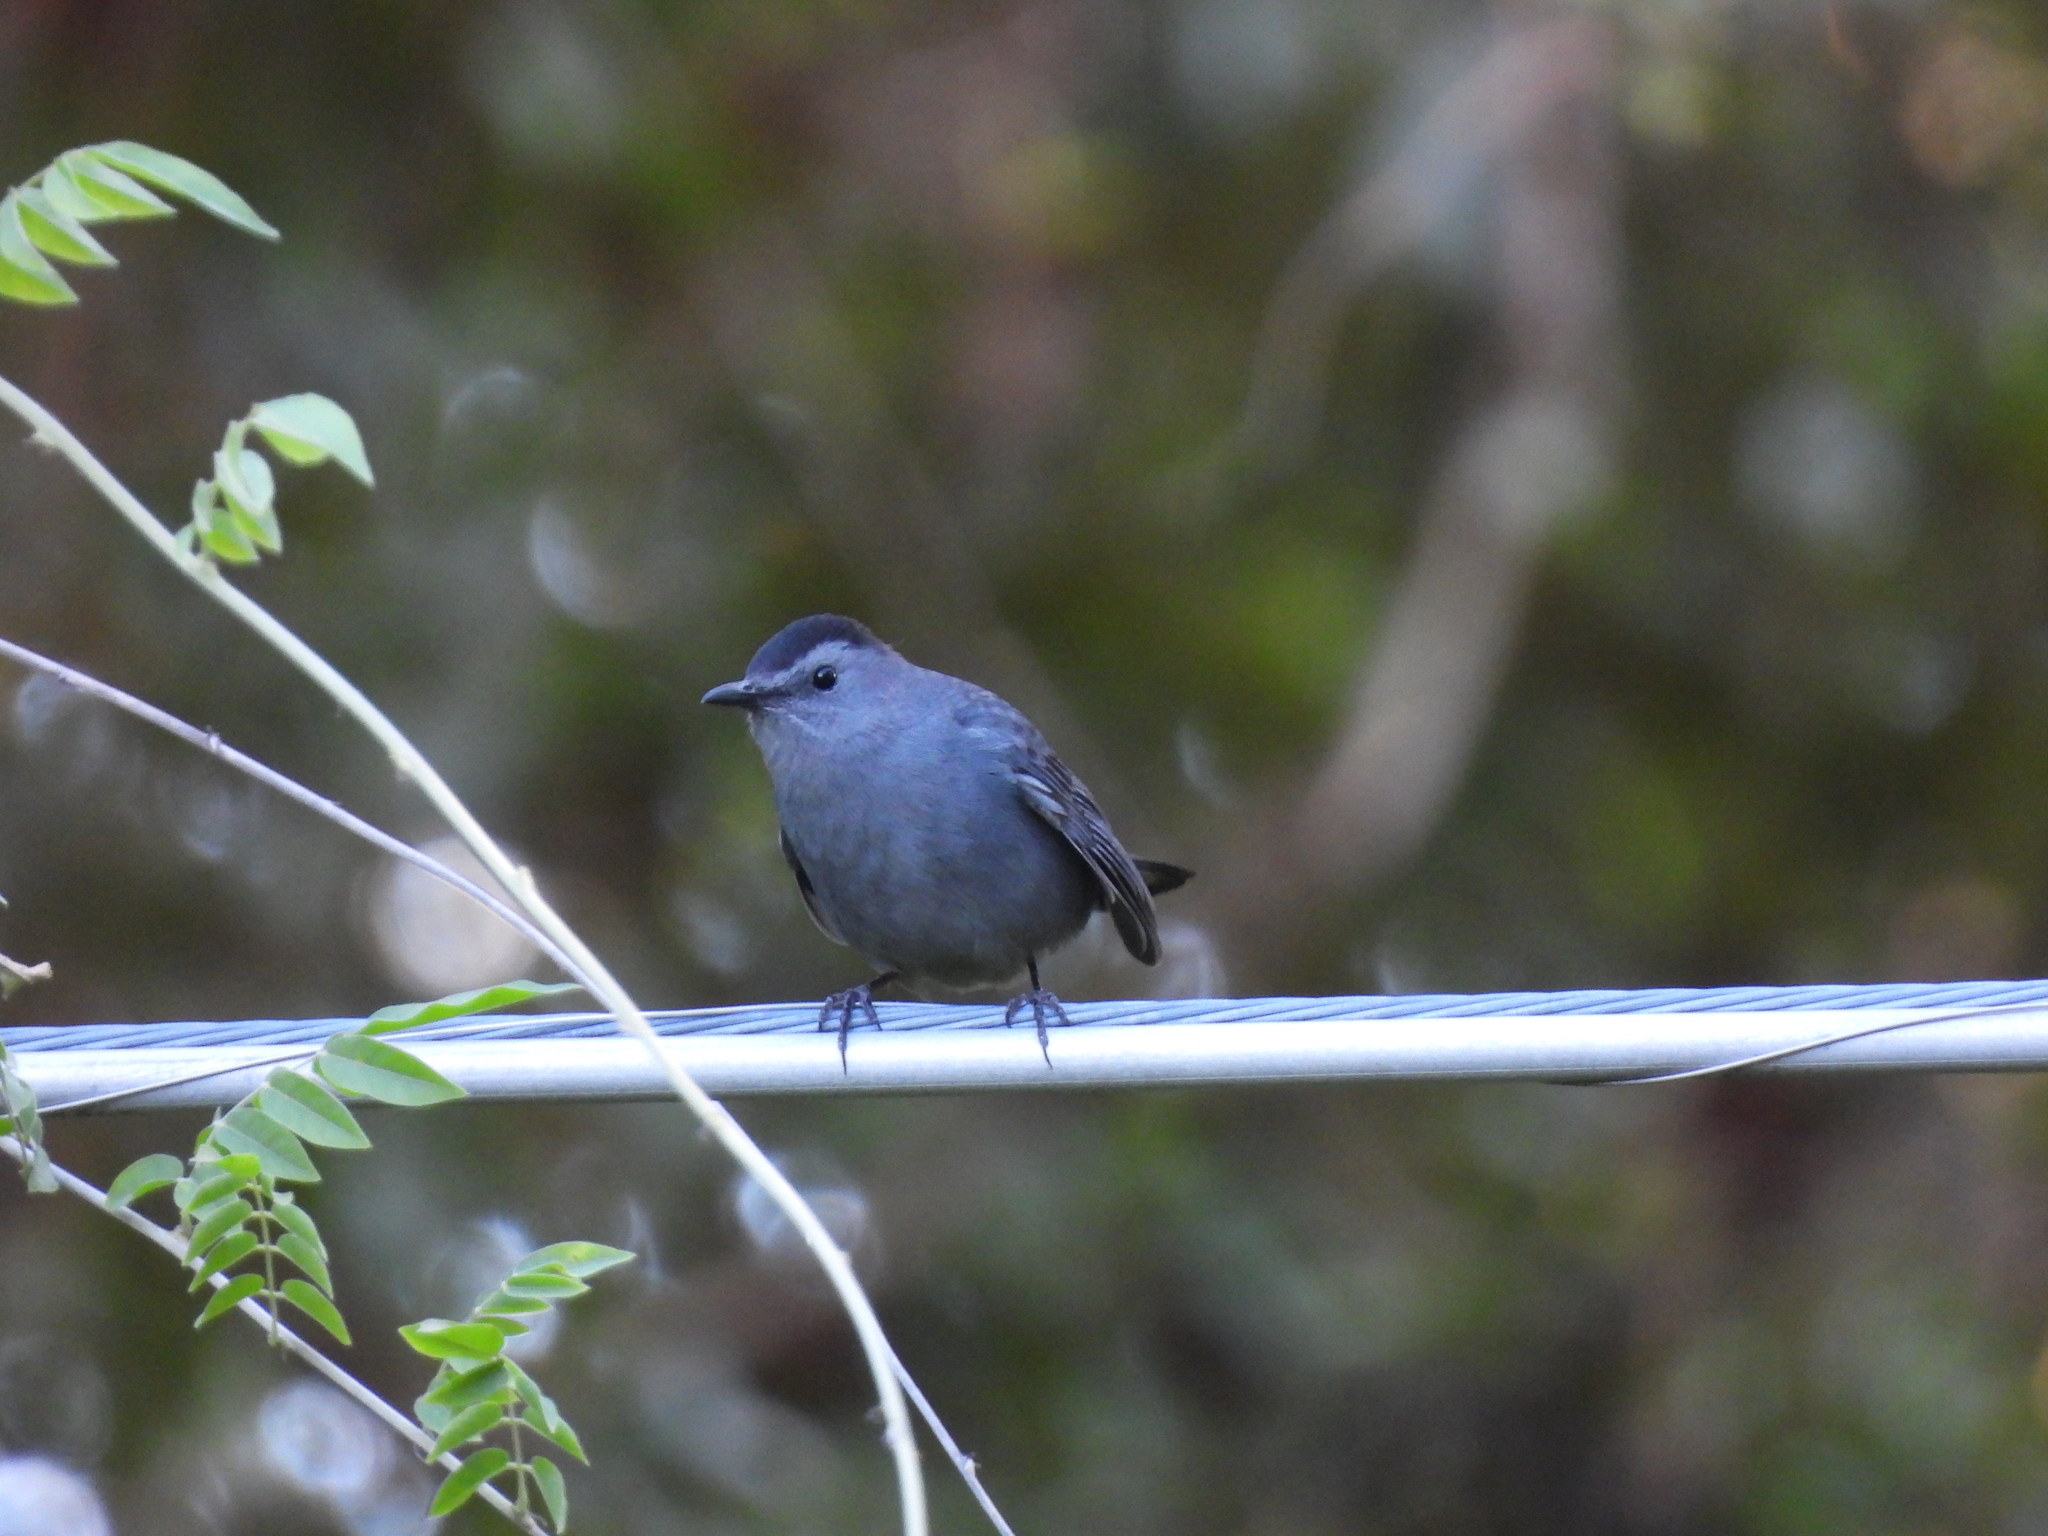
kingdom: Animalia
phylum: Chordata
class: Aves
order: Passeriformes
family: Mimidae
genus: Dumetella
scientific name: Dumetella carolinensis
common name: Gray catbird
